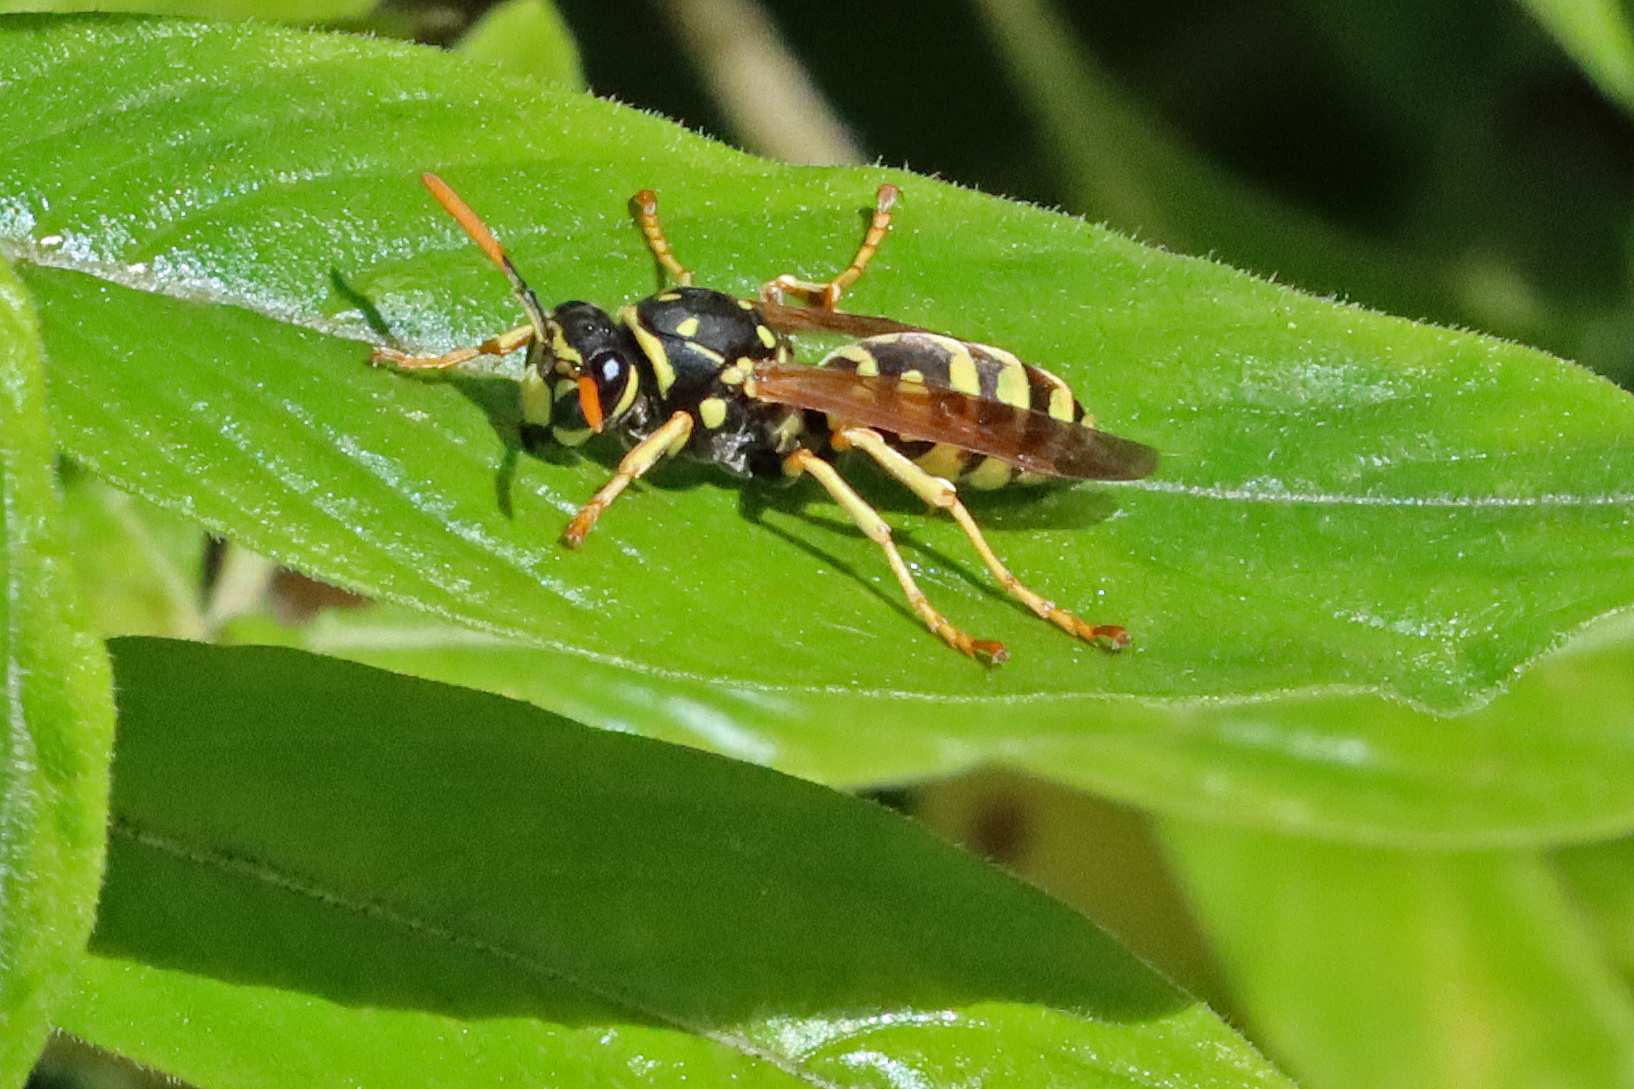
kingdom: Animalia
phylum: Arthropoda
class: Insecta
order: Hymenoptera
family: Eumenidae
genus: Polistes
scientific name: Polistes dominula
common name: Paper wasp
